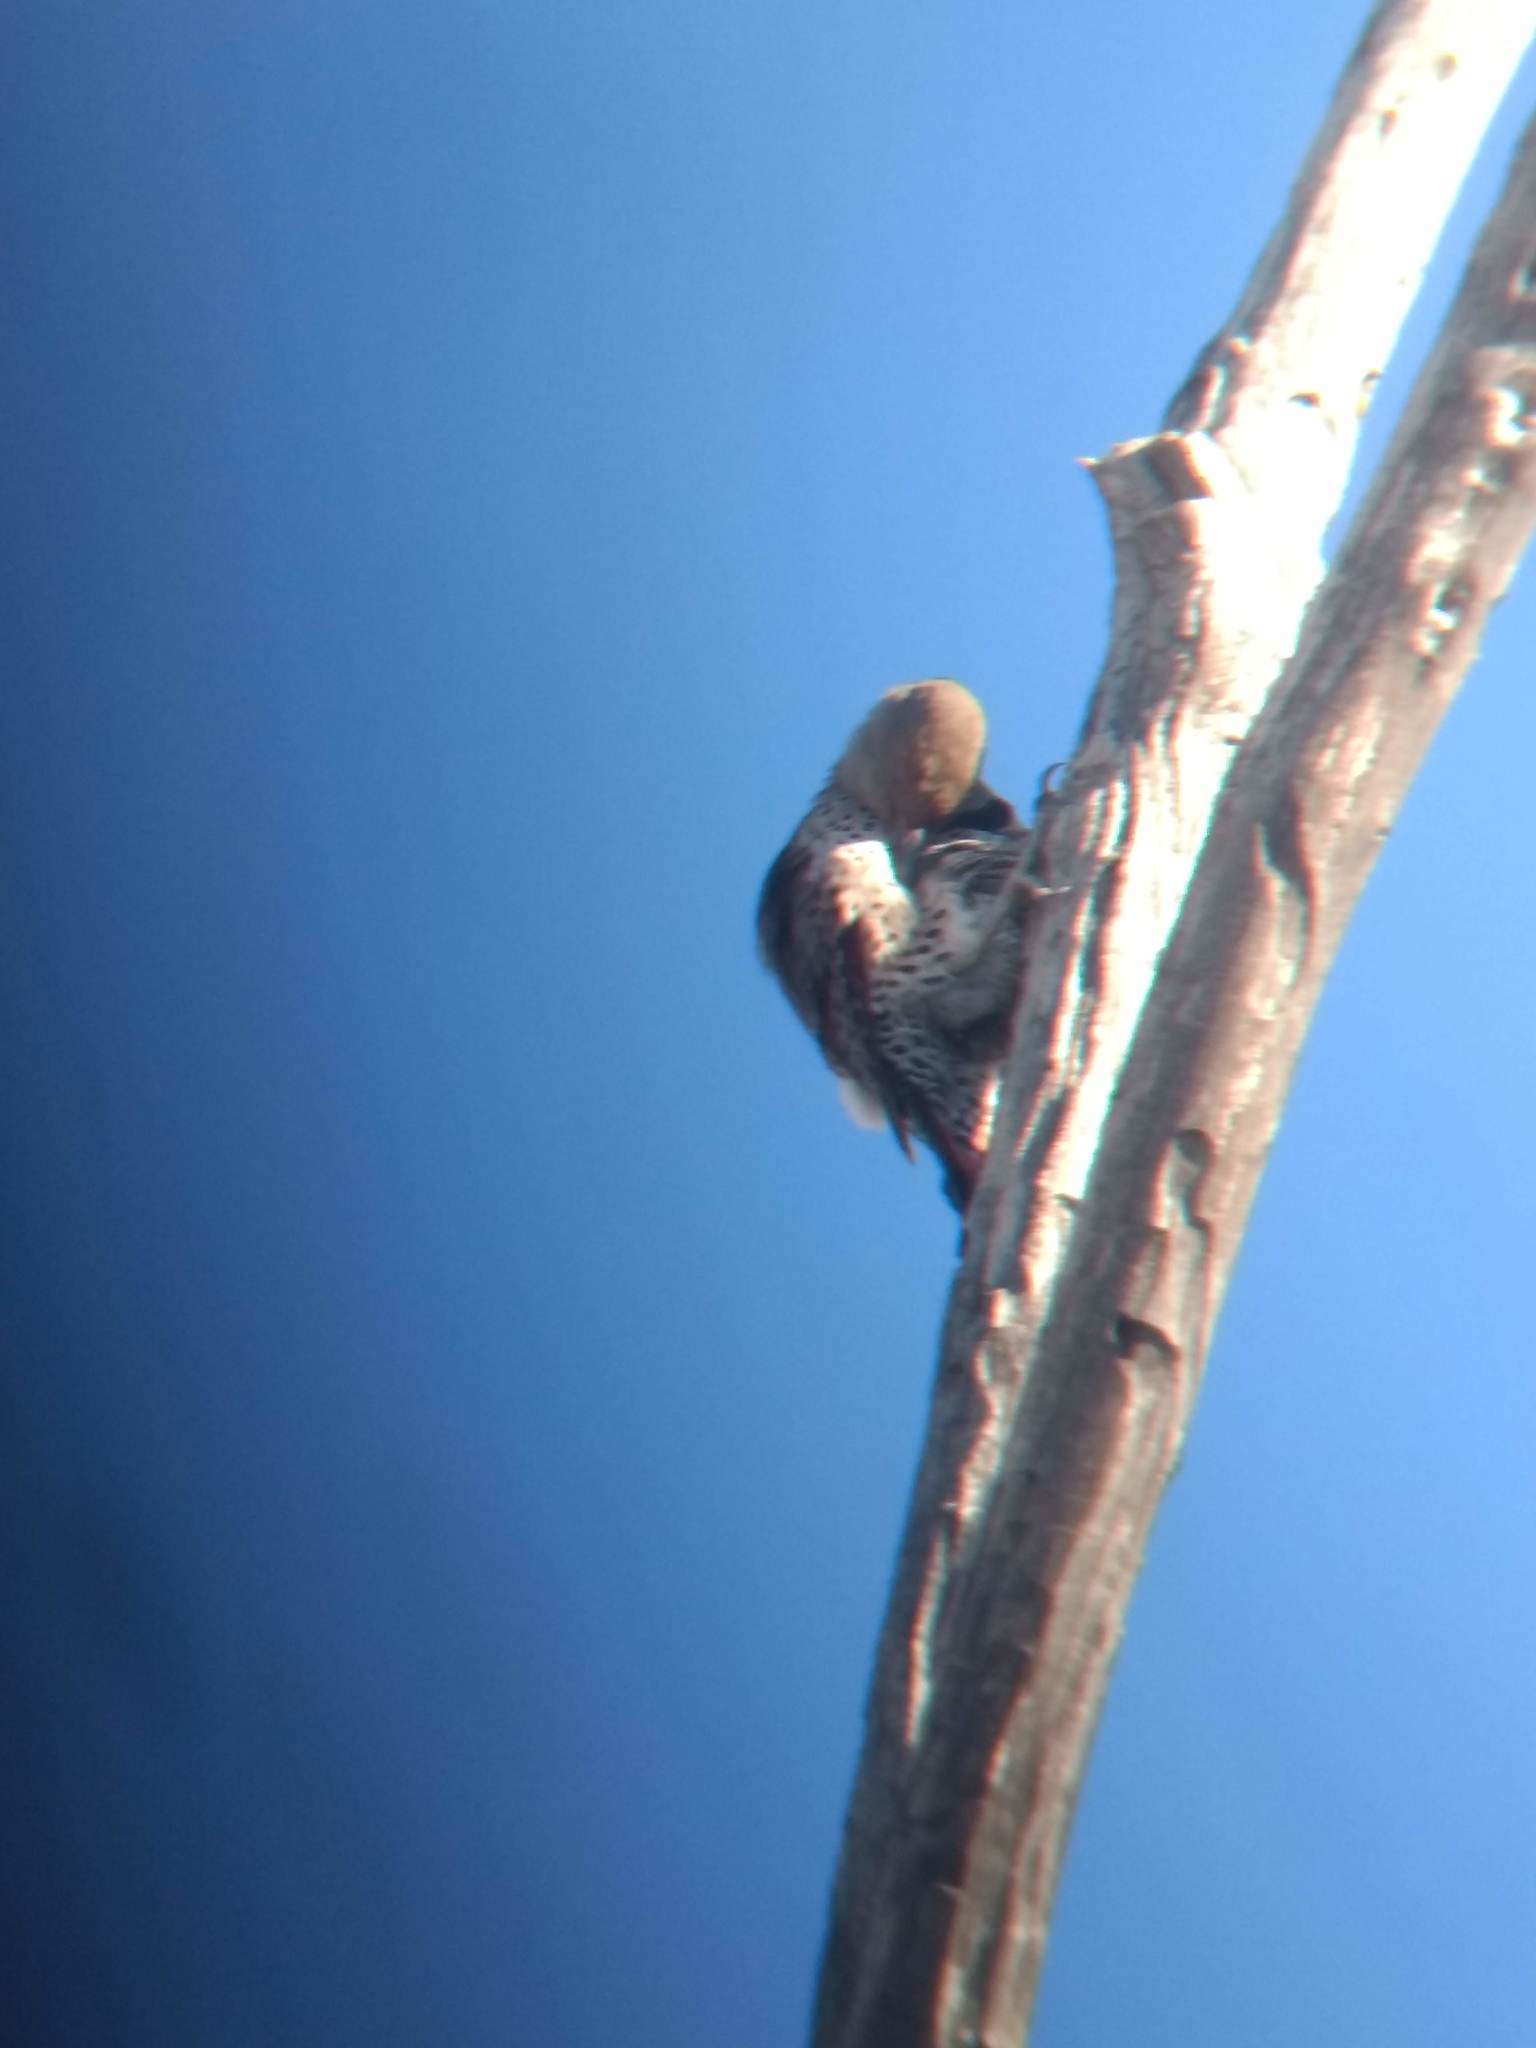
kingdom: Animalia
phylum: Chordata
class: Aves
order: Piciformes
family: Picidae
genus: Colaptes
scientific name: Colaptes auratus
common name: Northern flicker
